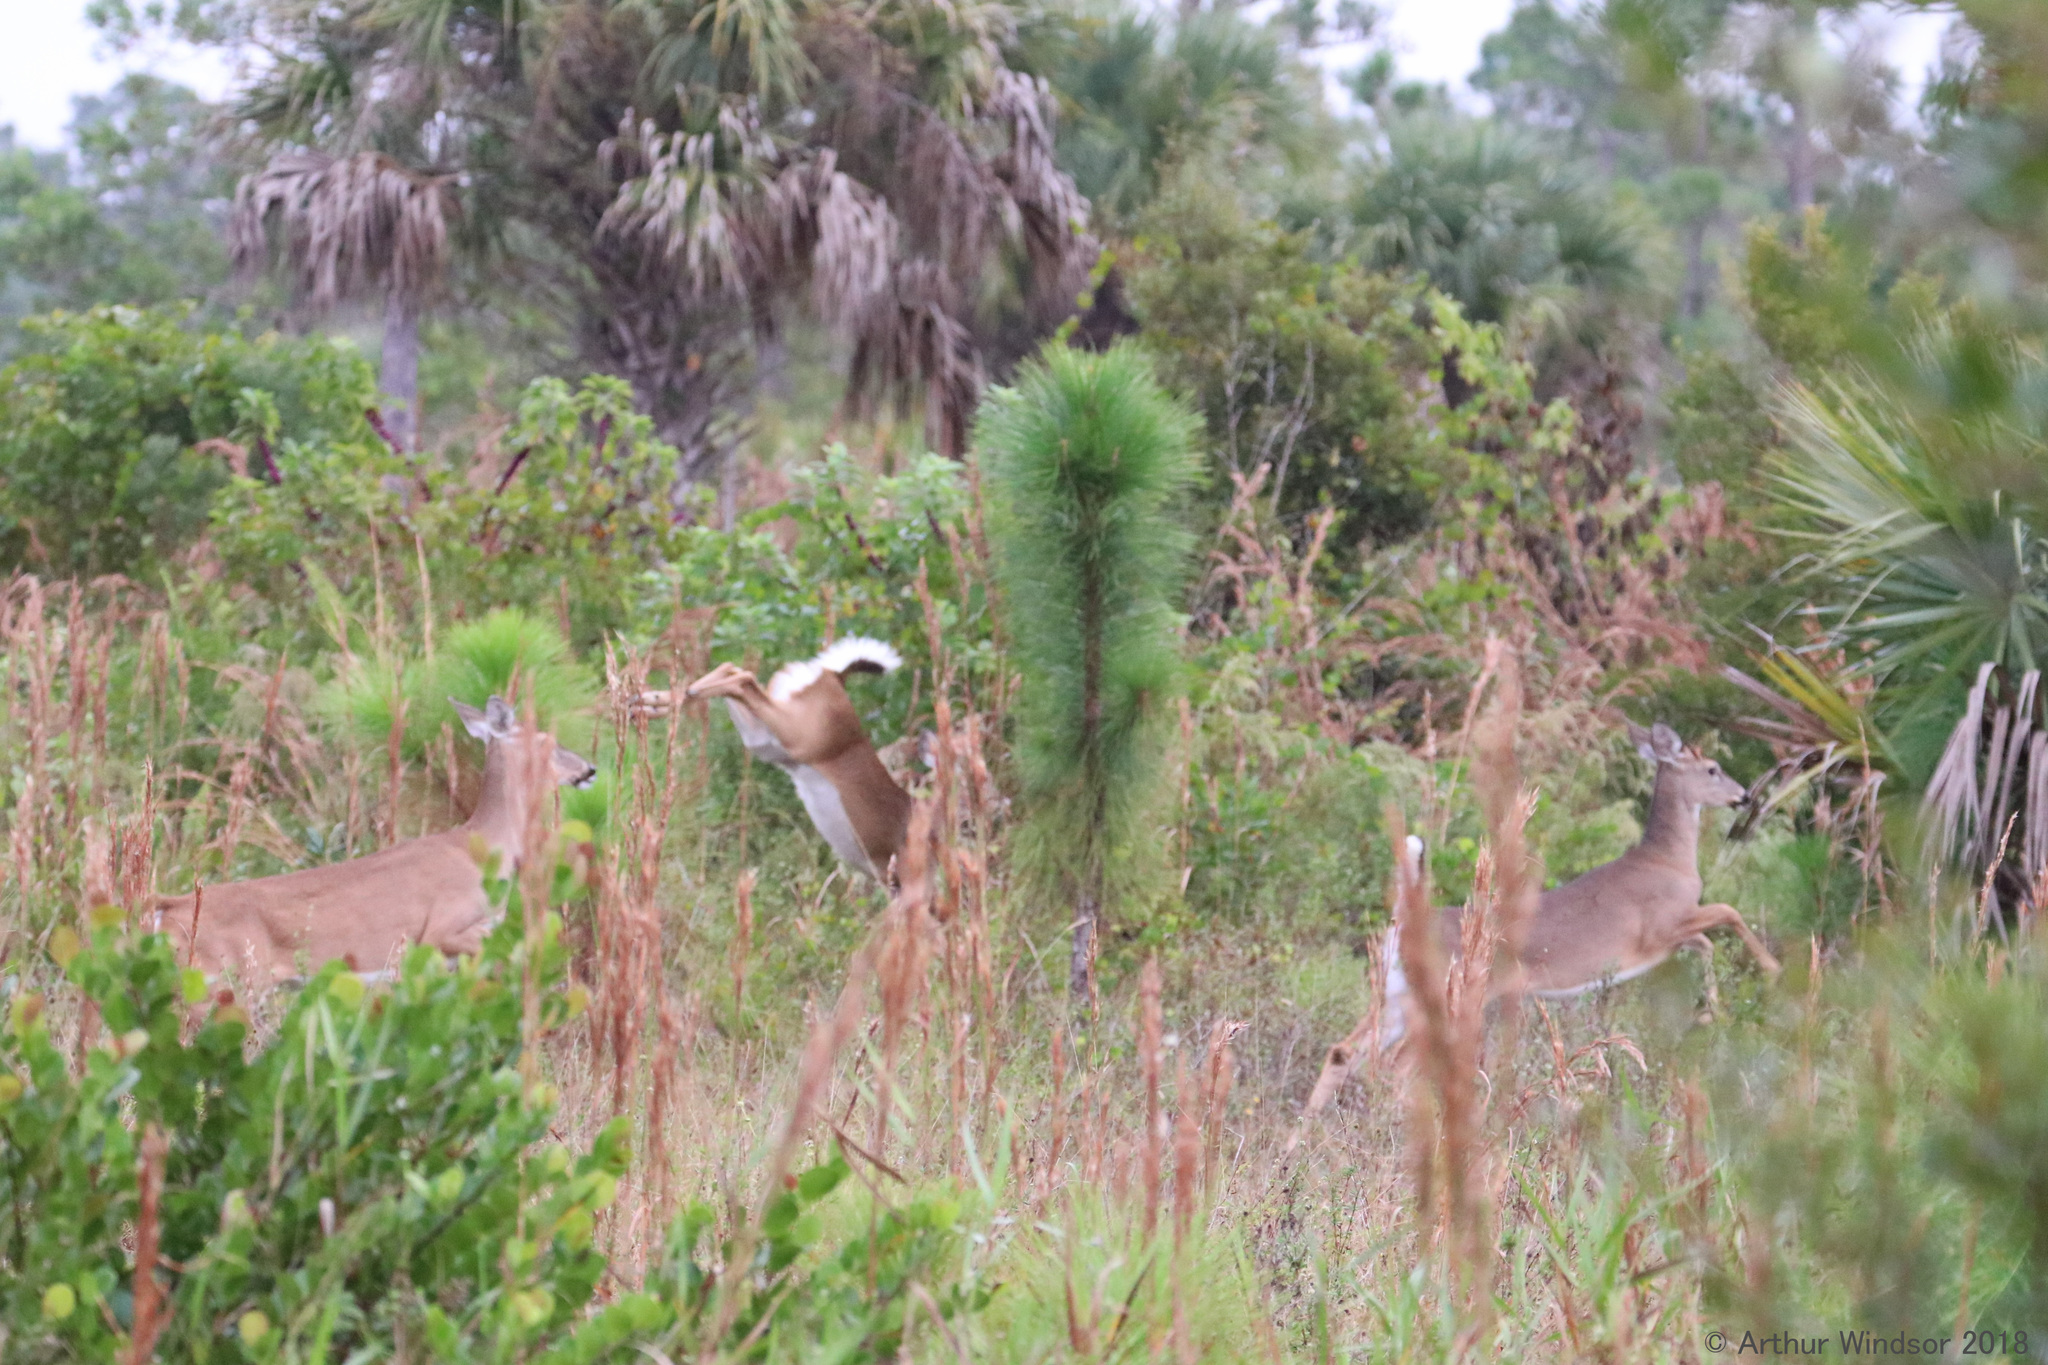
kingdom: Animalia
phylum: Chordata
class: Mammalia
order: Artiodactyla
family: Cervidae
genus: Odocoileus
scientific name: Odocoileus virginianus
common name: White-tailed deer
